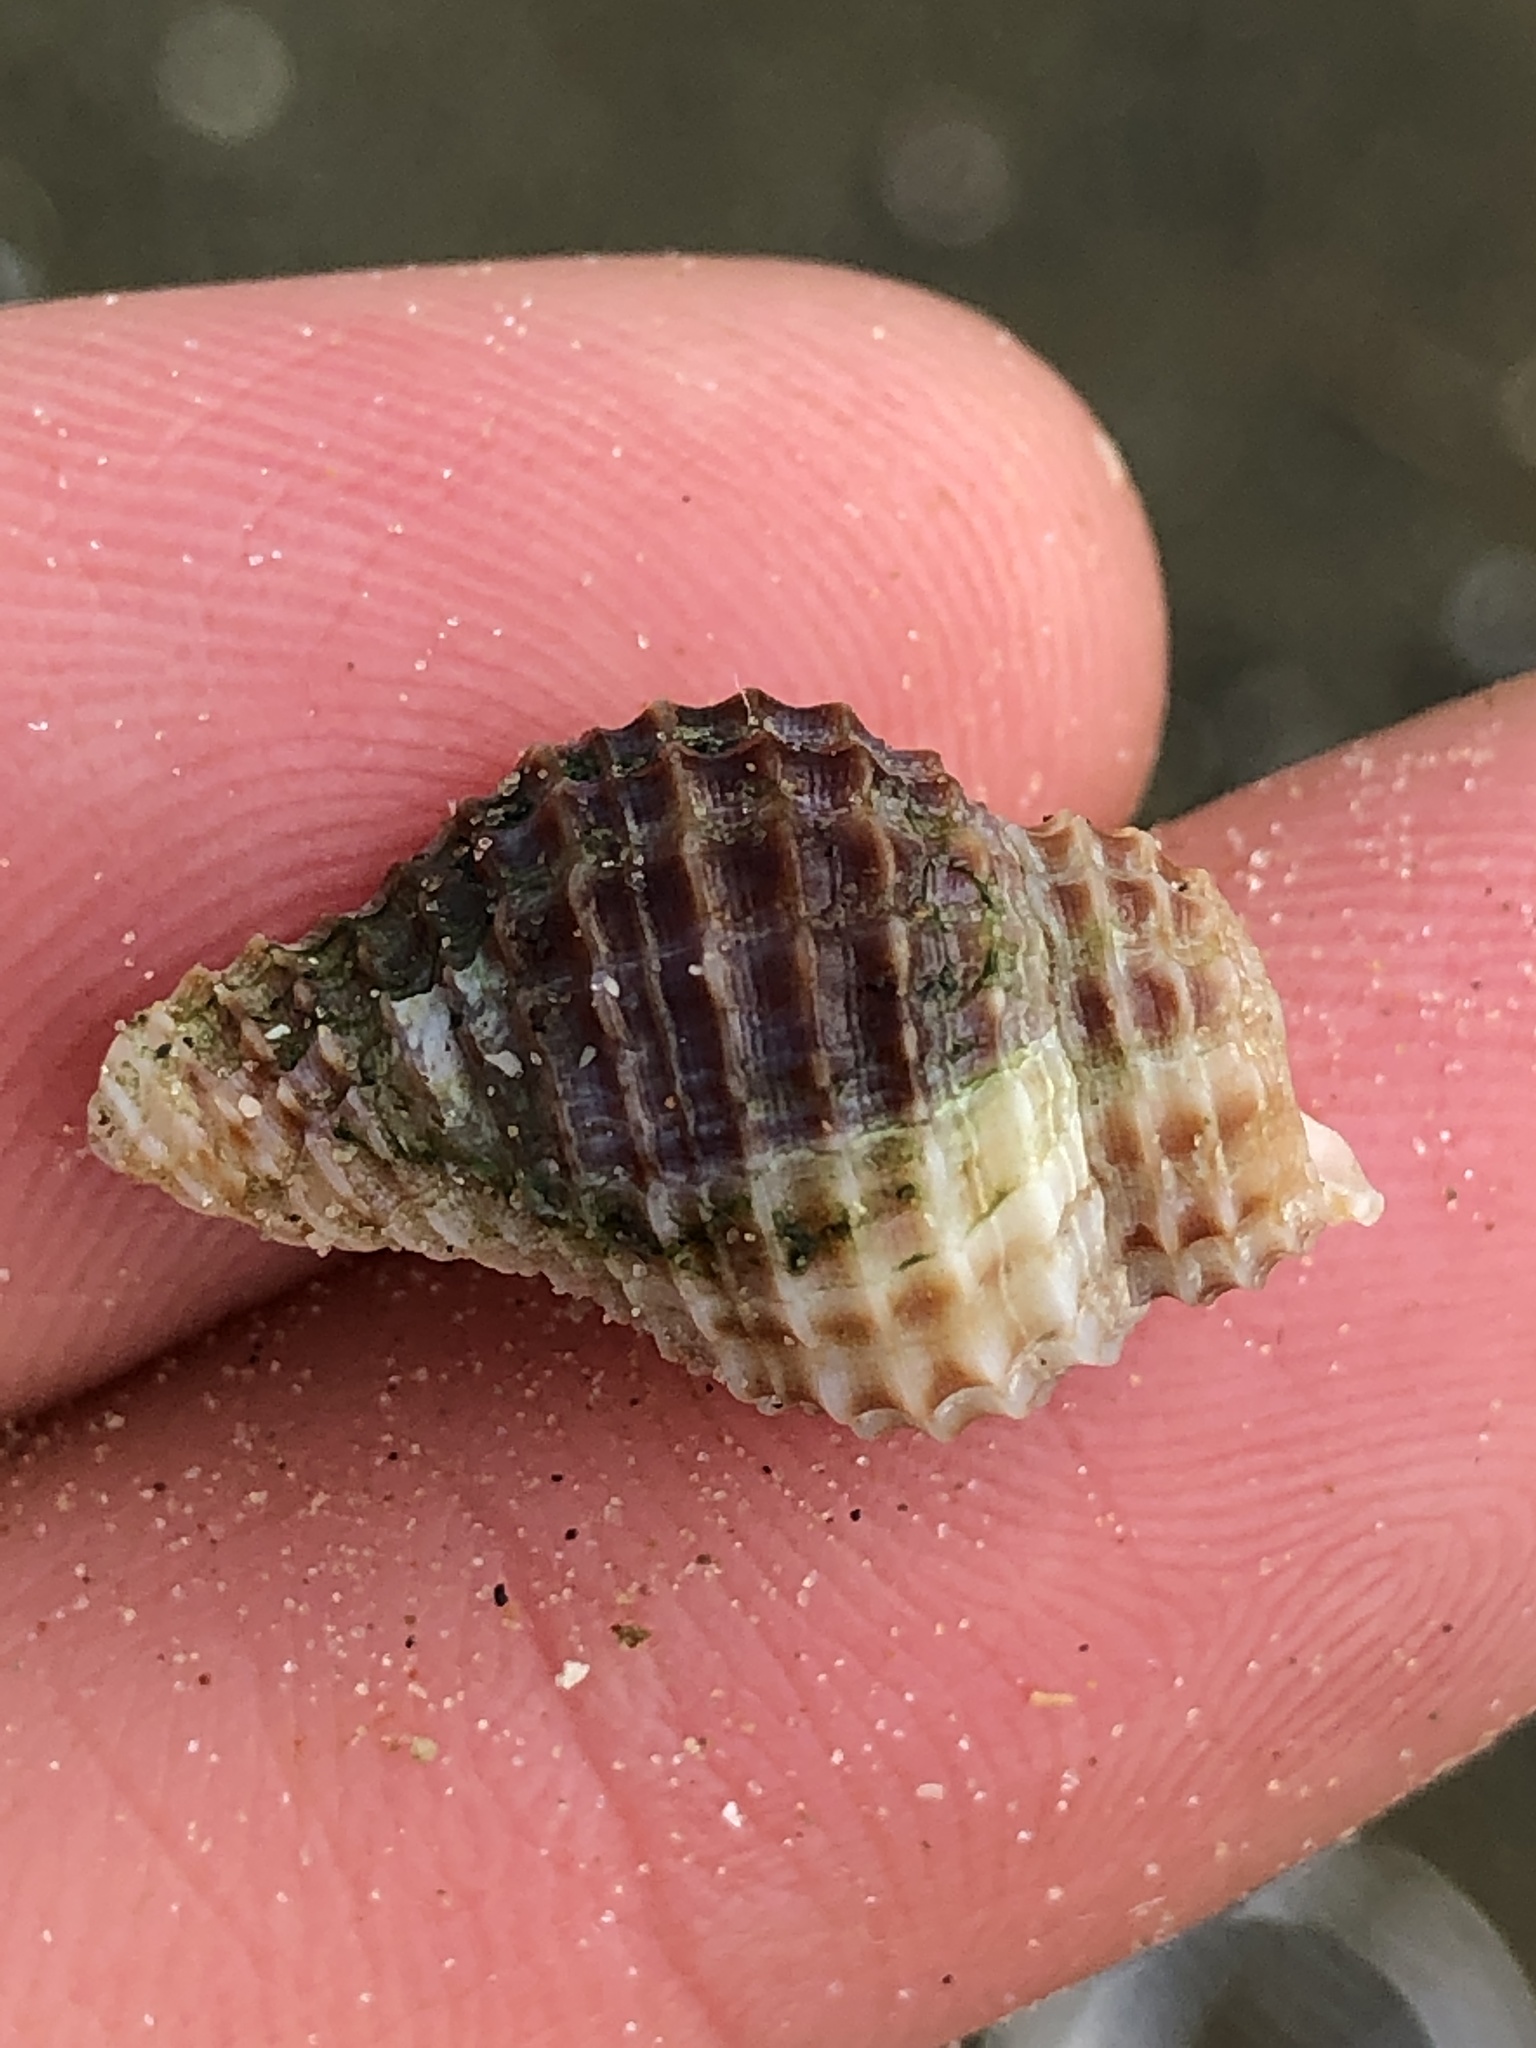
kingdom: Animalia
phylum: Mollusca
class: Gastropoda
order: Neogastropoda
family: Pisaniidae
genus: Solenosteira
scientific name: Solenosteira cancellaria
